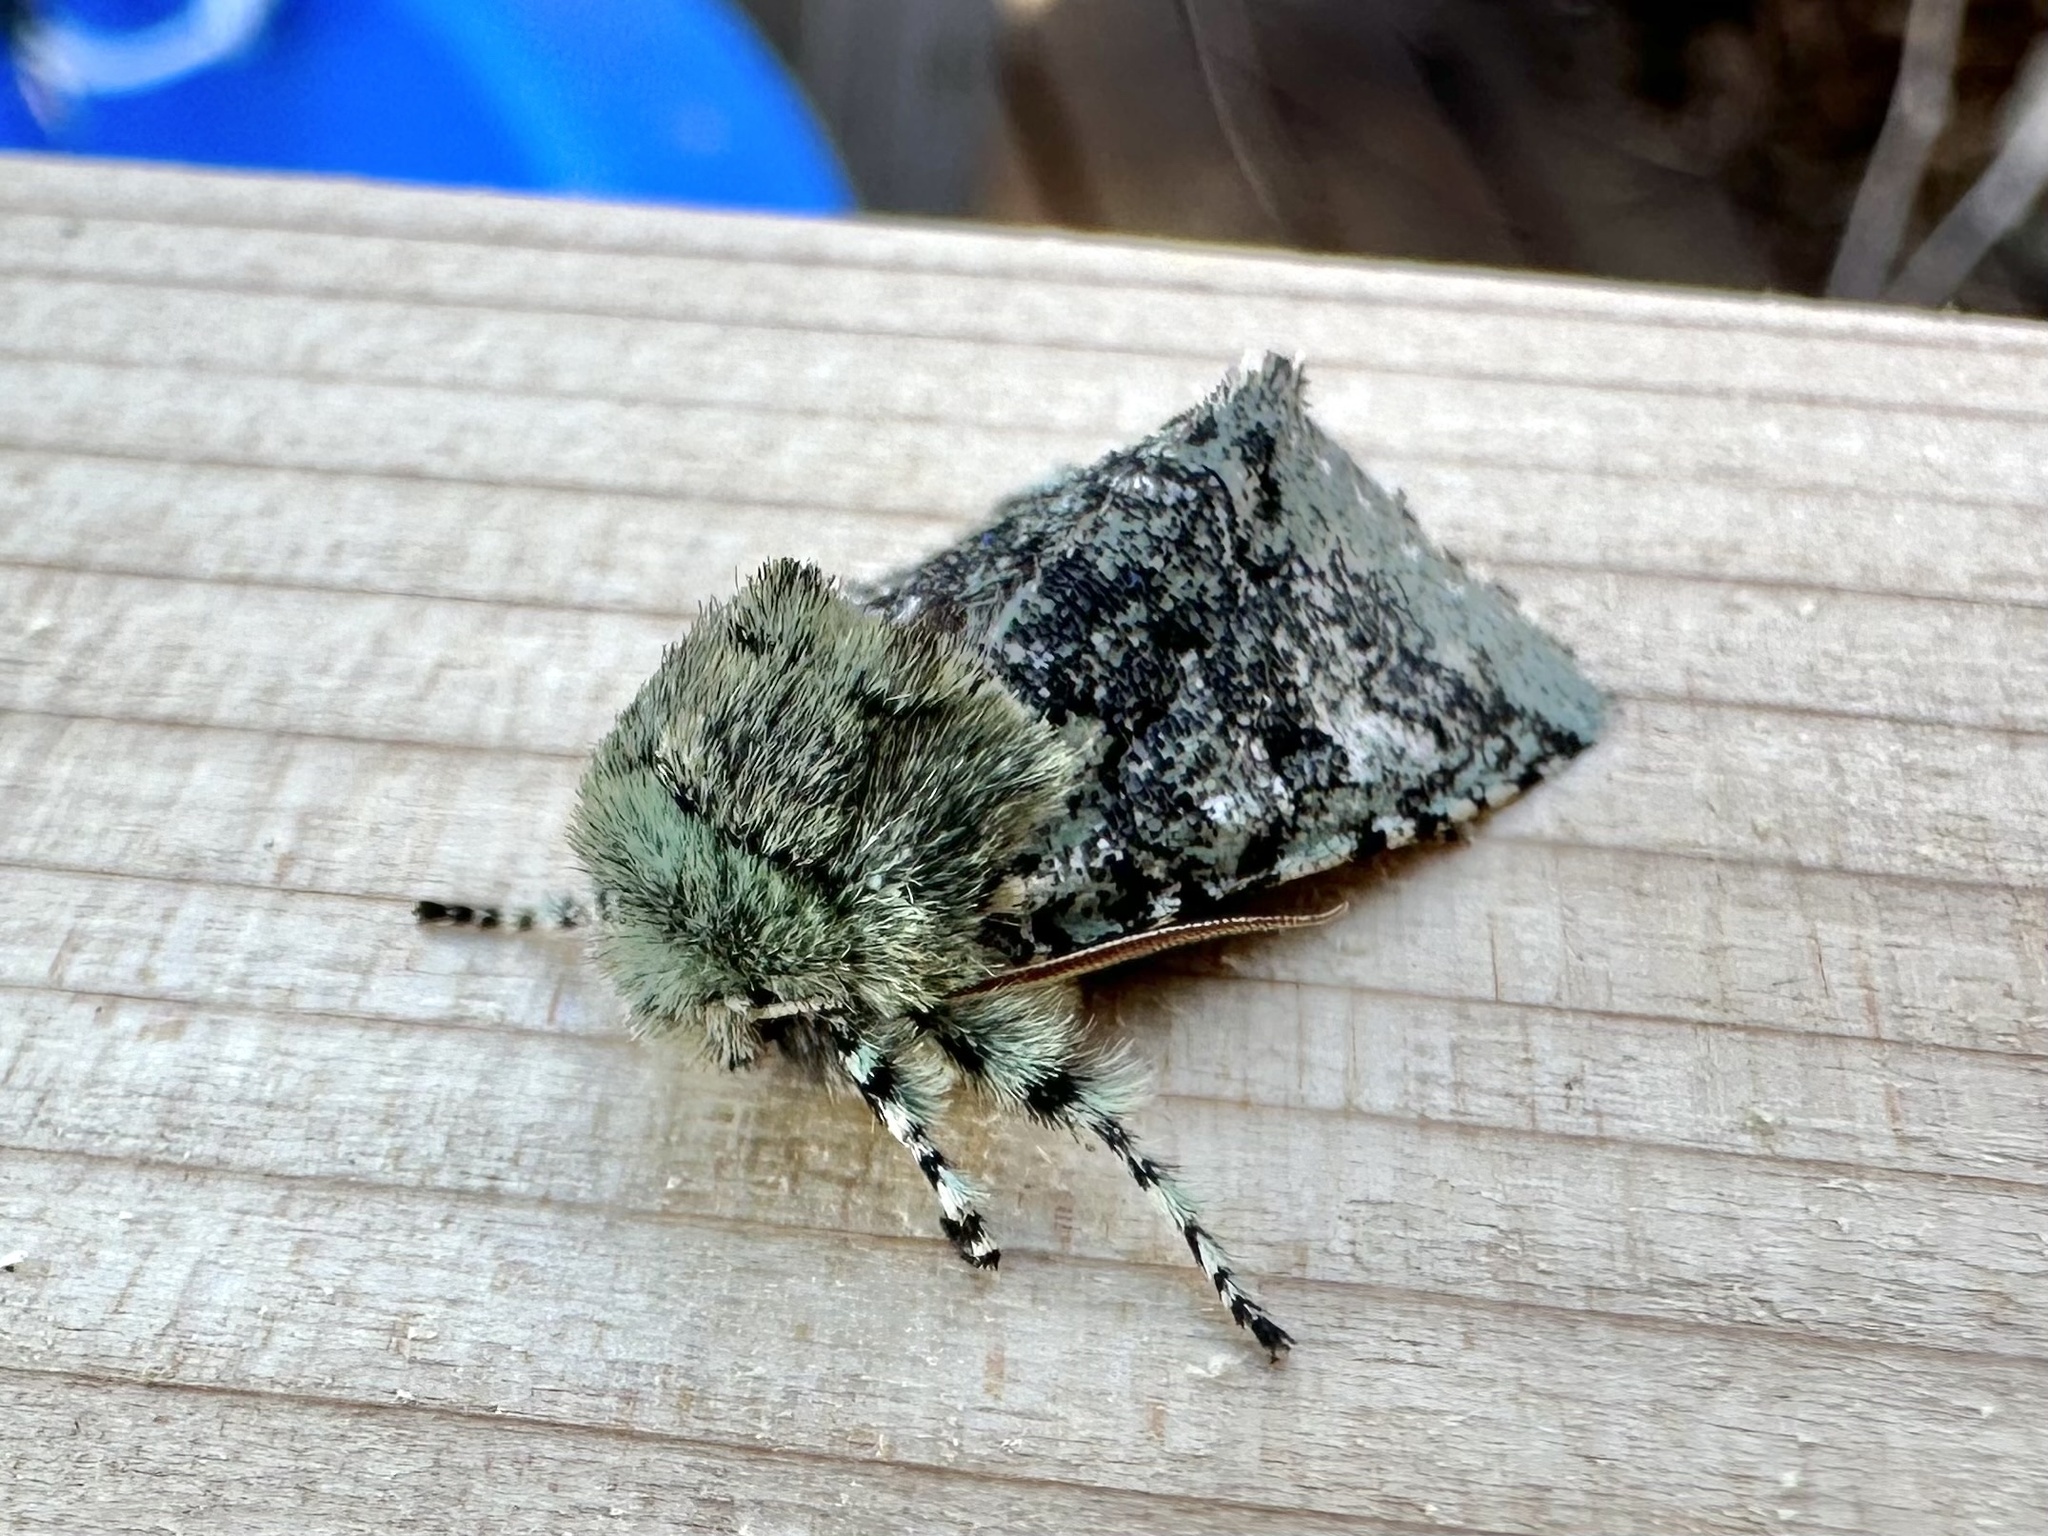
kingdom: Animalia
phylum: Arthropoda
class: Insecta
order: Lepidoptera
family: Noctuidae
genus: Feralia
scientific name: Feralia major
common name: Major sallow
